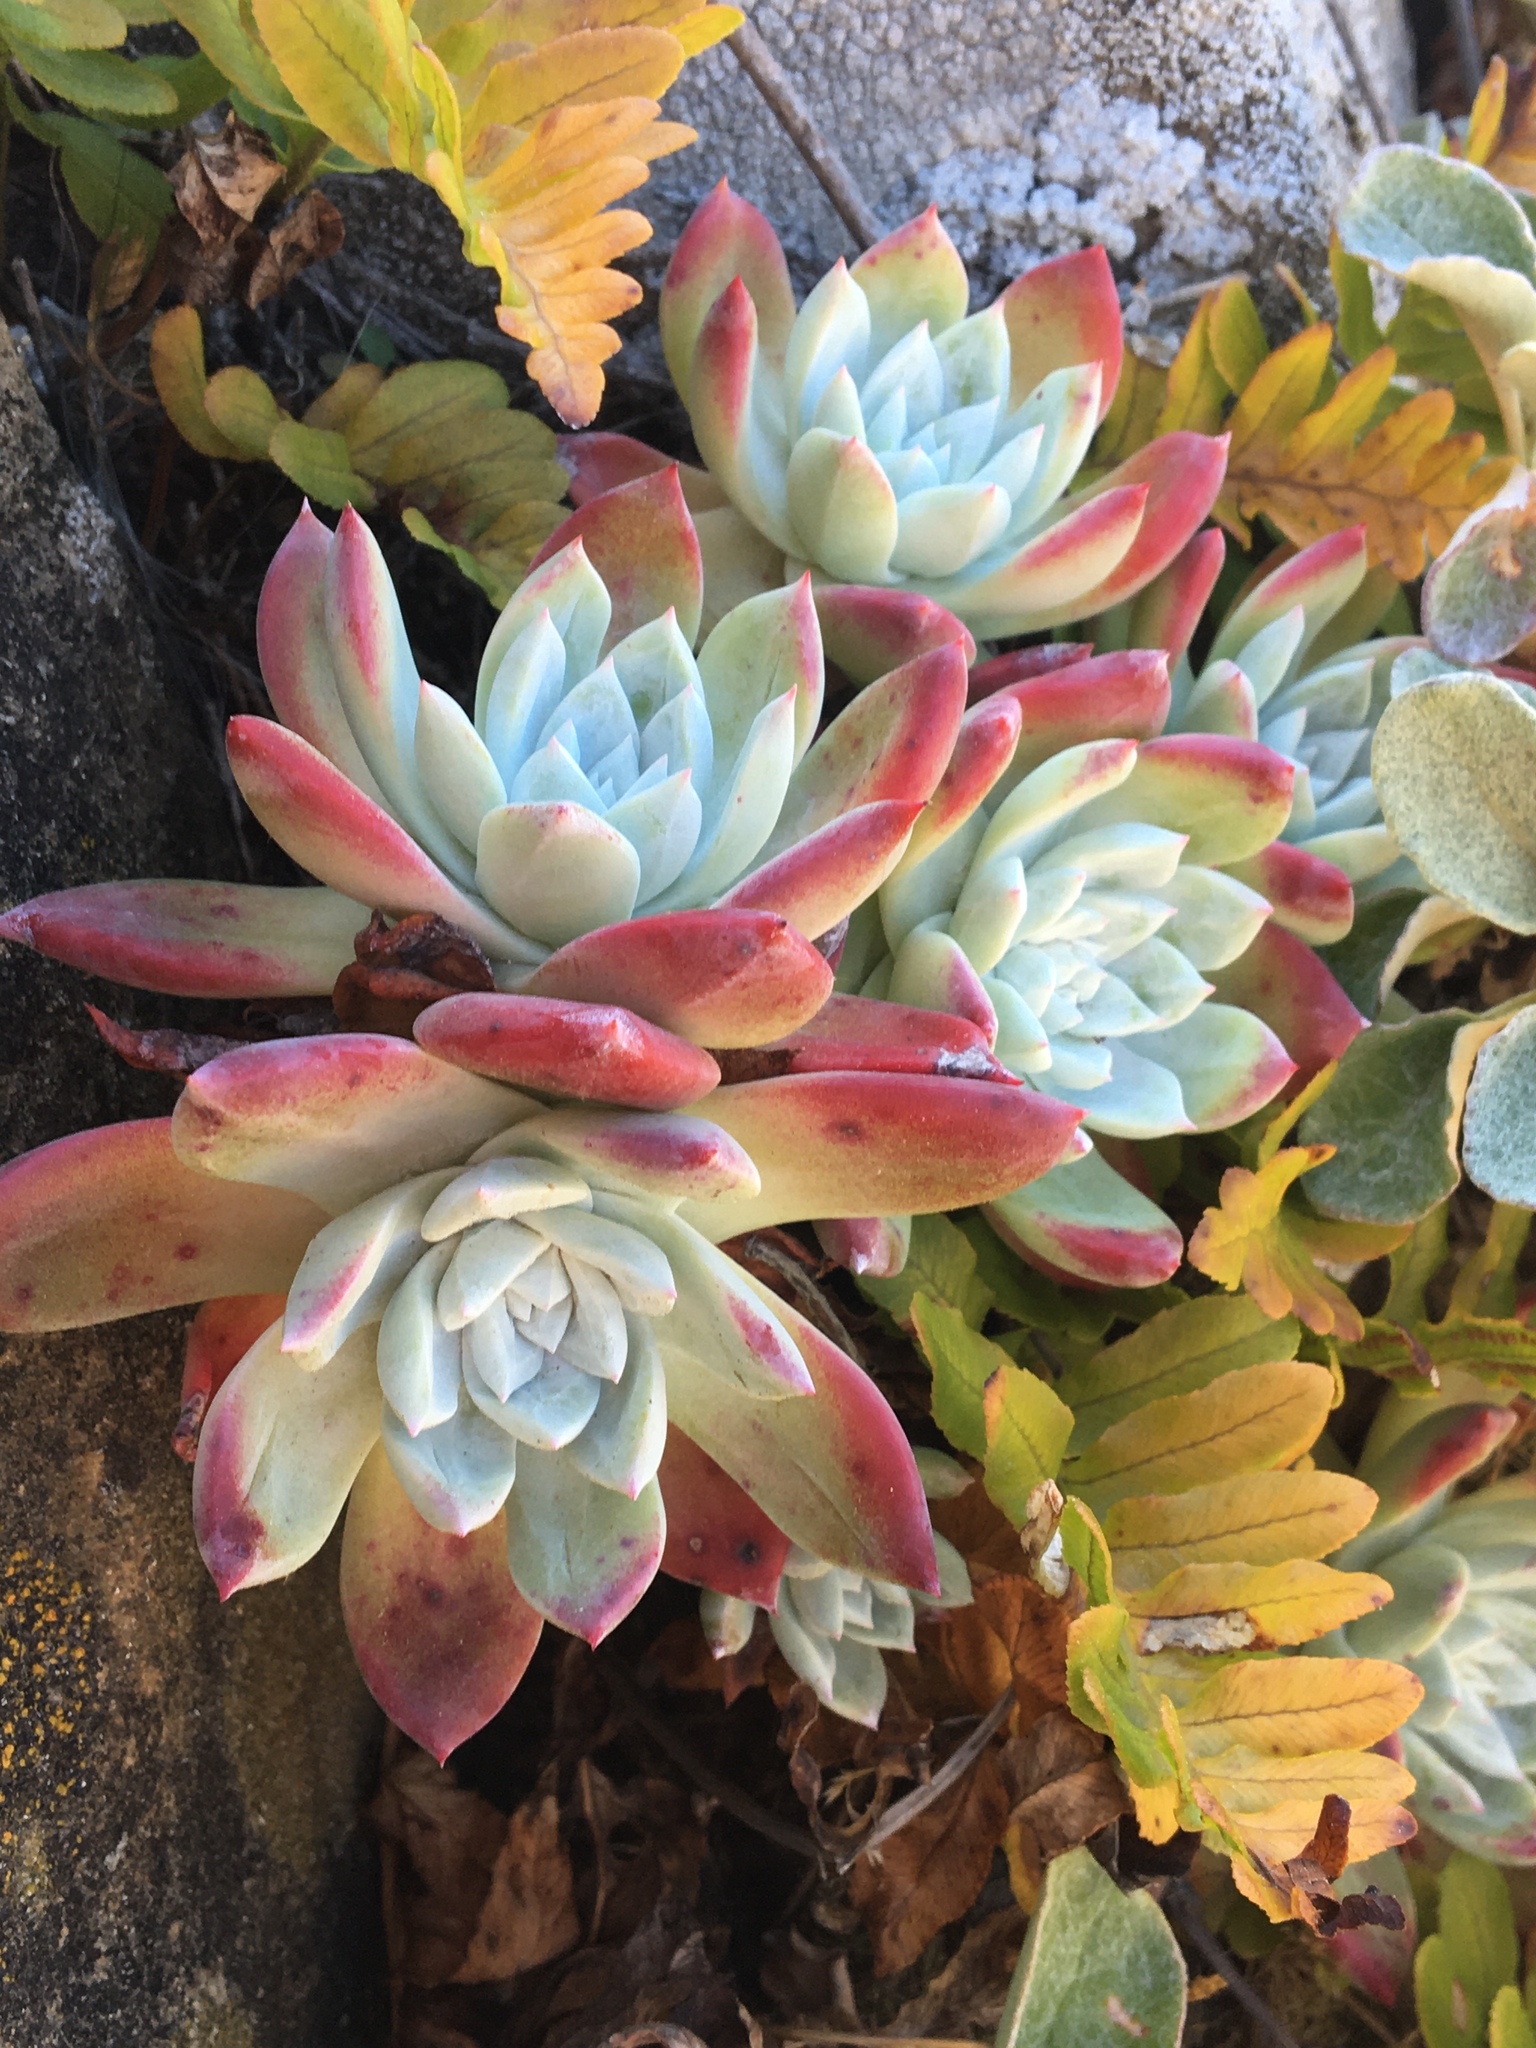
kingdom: Plantae
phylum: Tracheophyta
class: Magnoliopsida
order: Saxifragales
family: Crassulaceae
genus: Dudleya
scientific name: Dudleya farinosa
